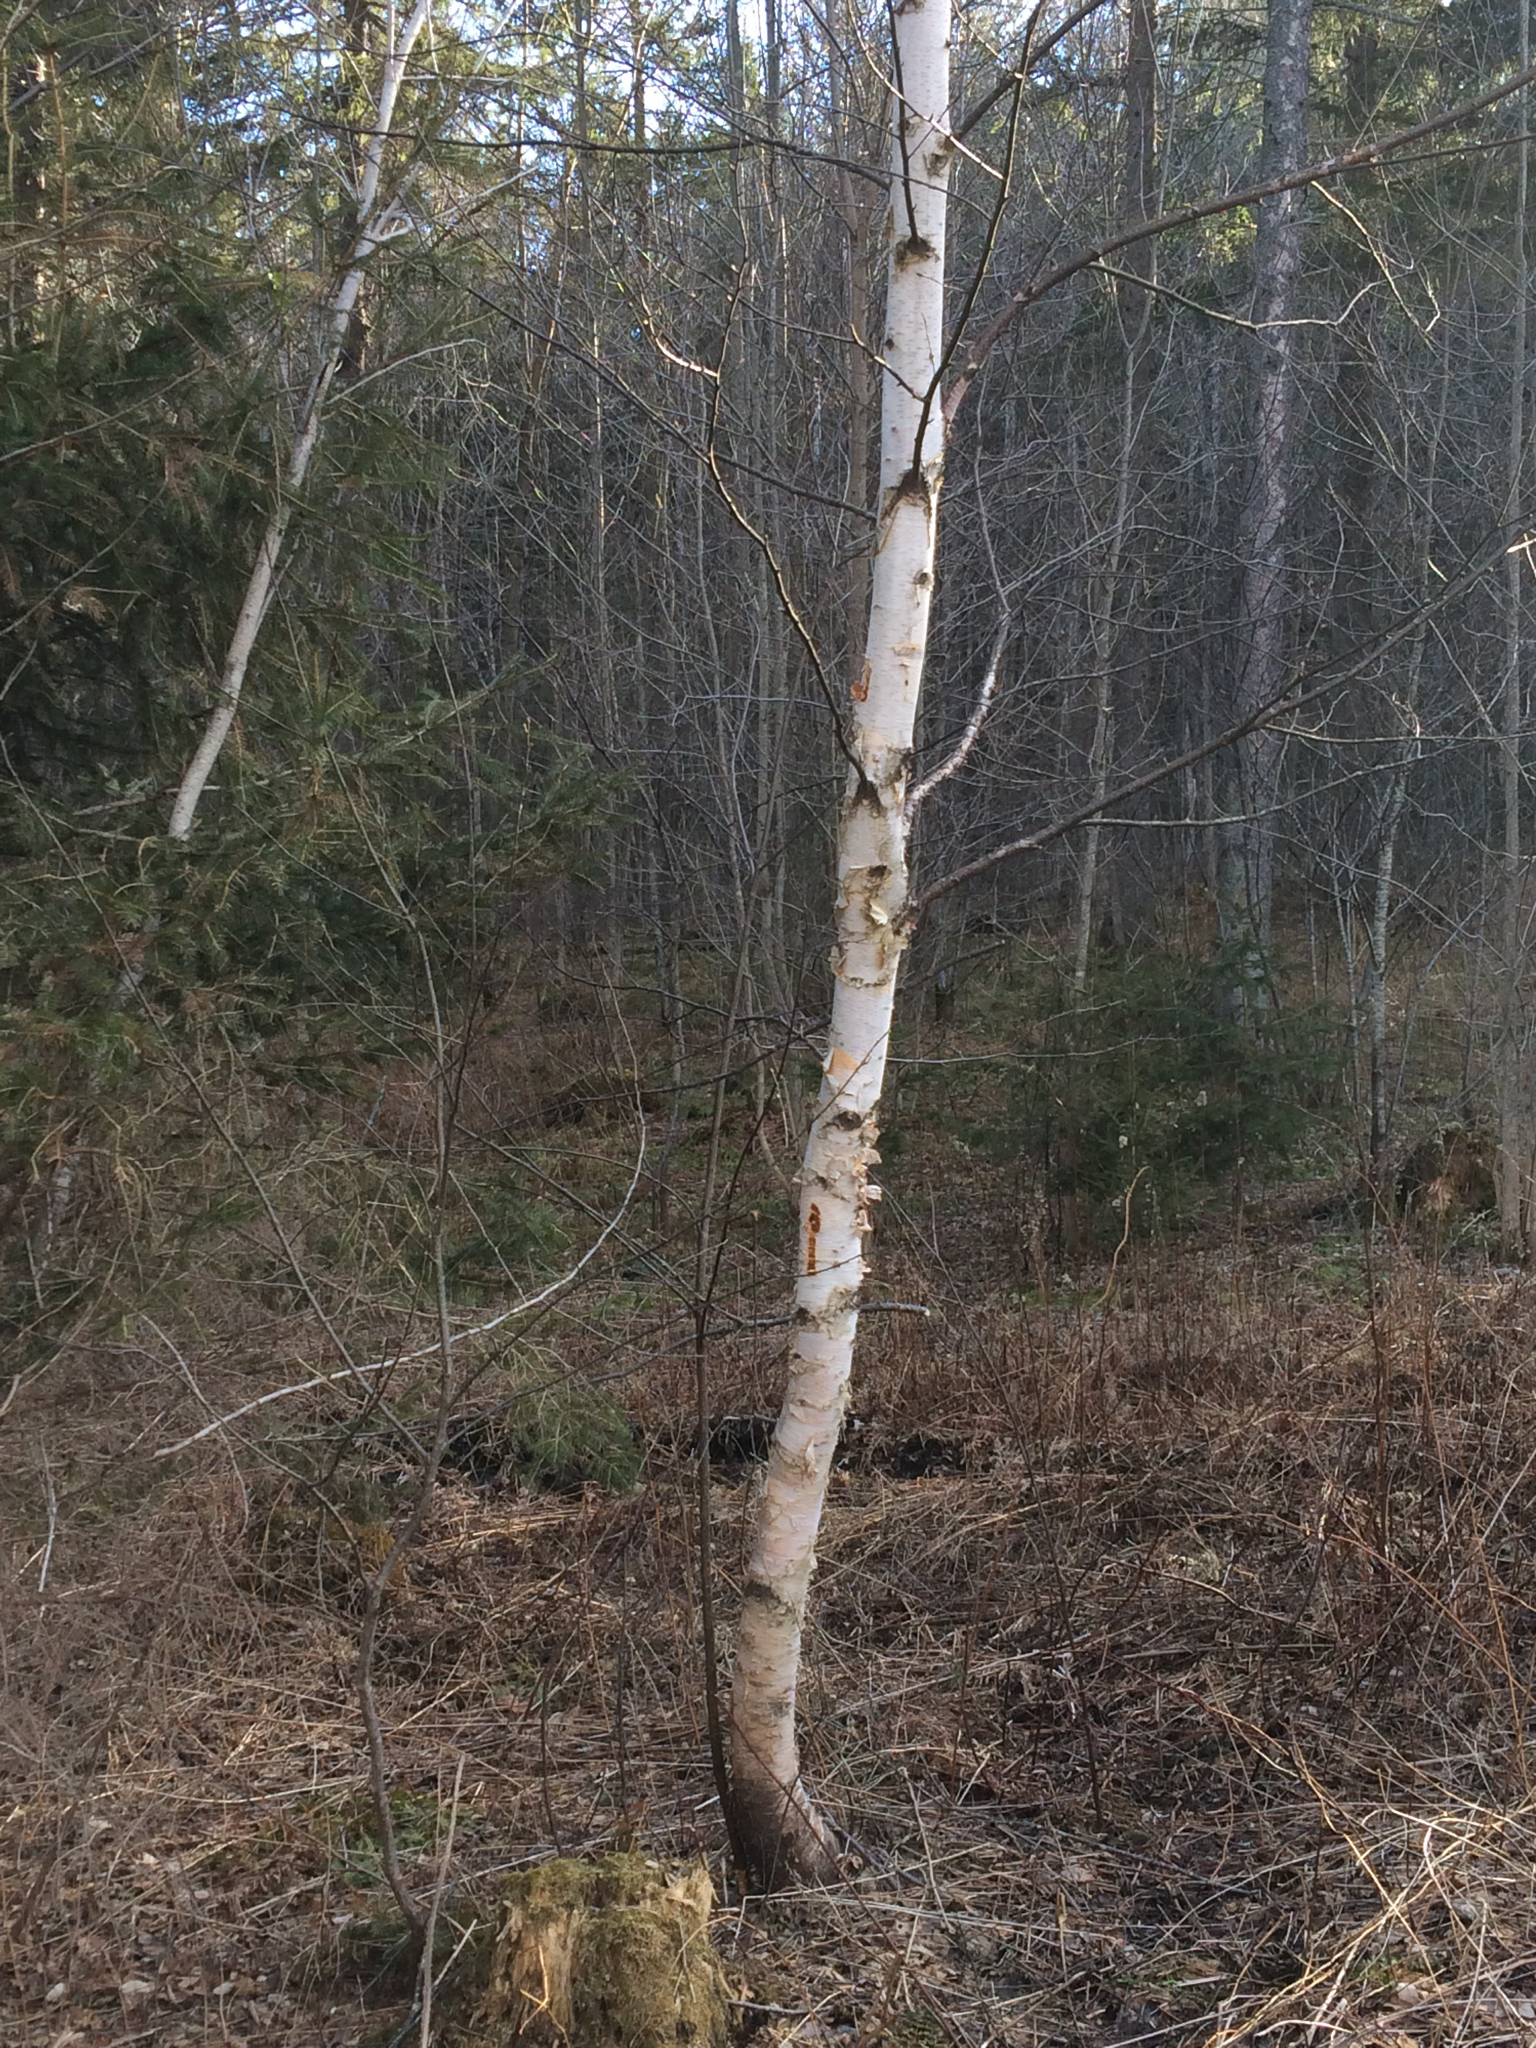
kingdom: Plantae
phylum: Tracheophyta
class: Magnoliopsida
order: Fagales
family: Betulaceae
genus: Betula
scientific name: Betula papyrifera
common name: Paper birch
